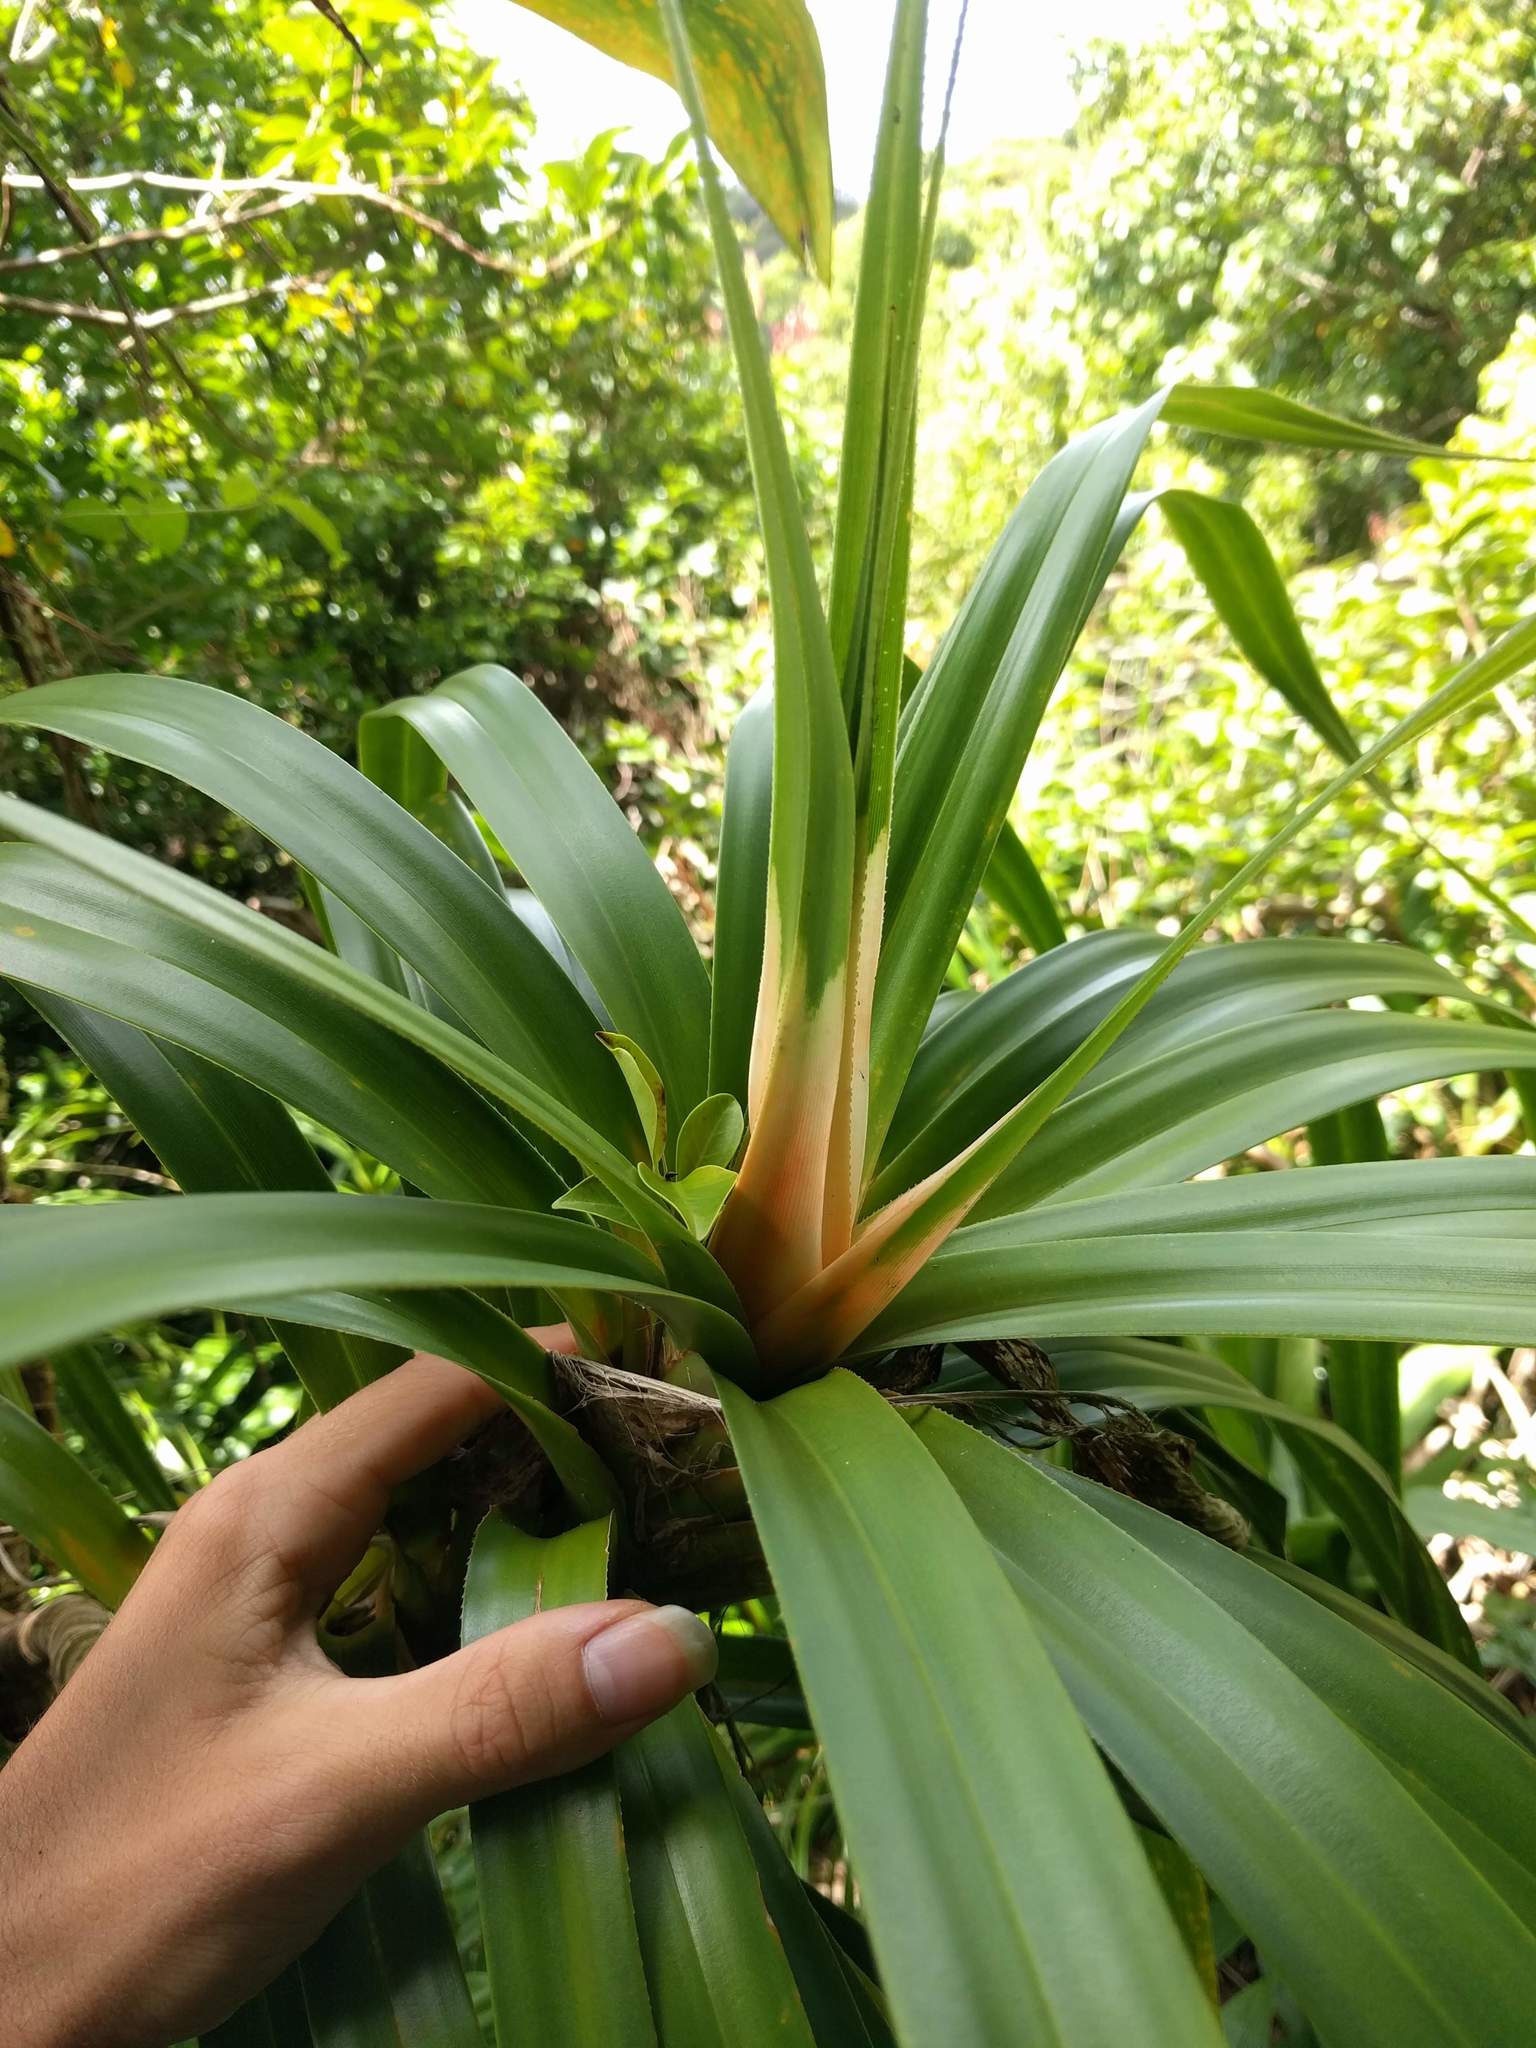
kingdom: Plantae
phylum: Tracheophyta
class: Liliopsida
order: Pandanales
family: Pandanaceae
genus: Freycinetia
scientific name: Freycinetia arborea
